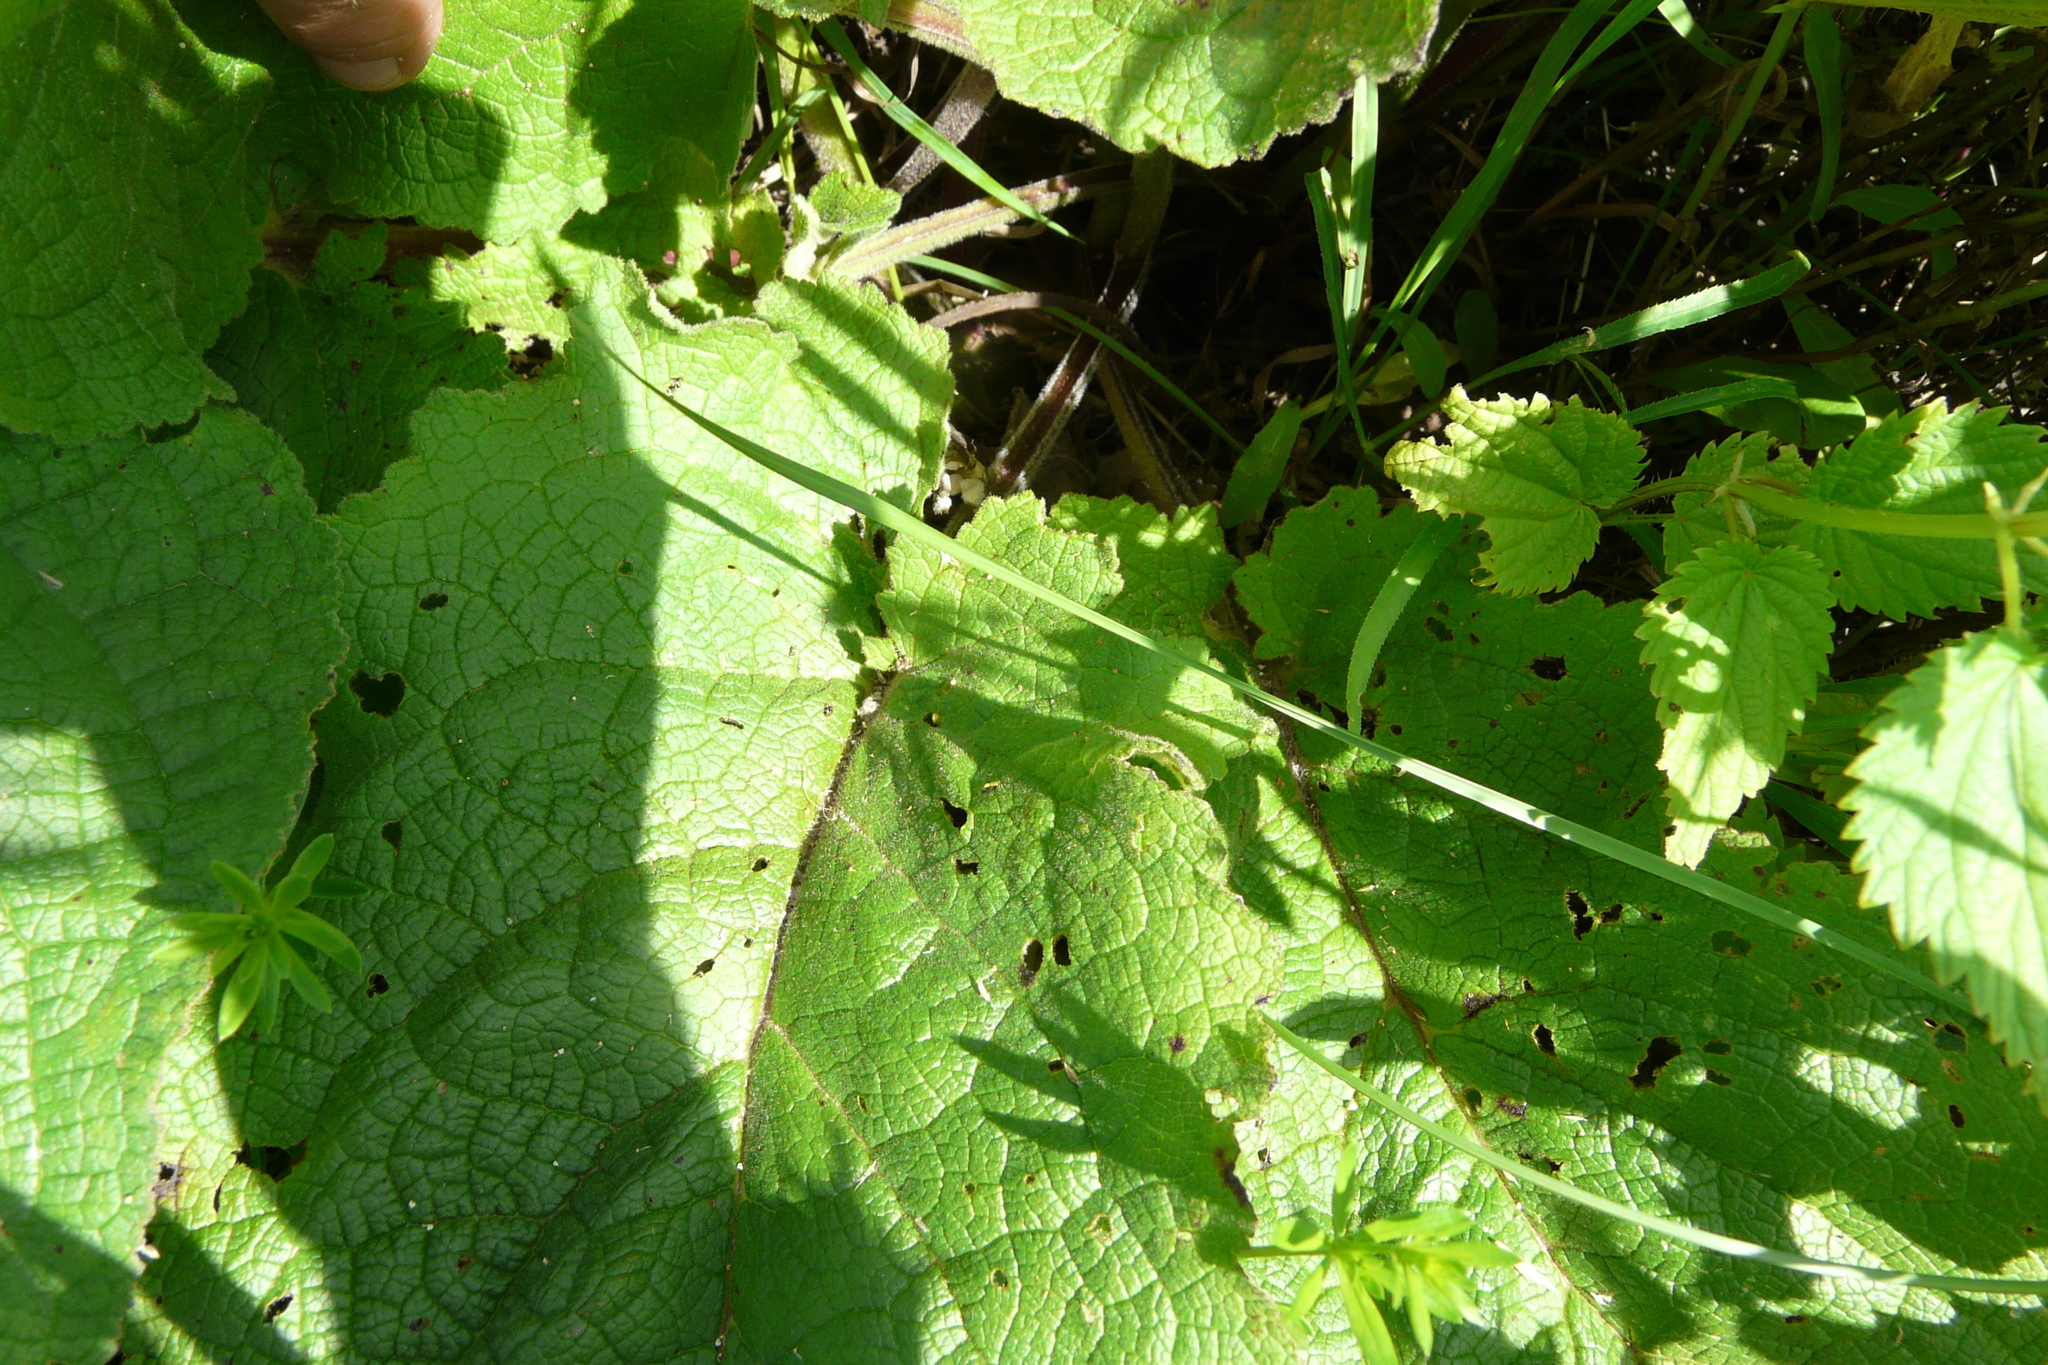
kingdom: Plantae
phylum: Tracheophyta
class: Magnoliopsida
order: Lamiales
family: Scrophulariaceae
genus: Verbascum
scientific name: Verbascum nigrum
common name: Dark mullein
